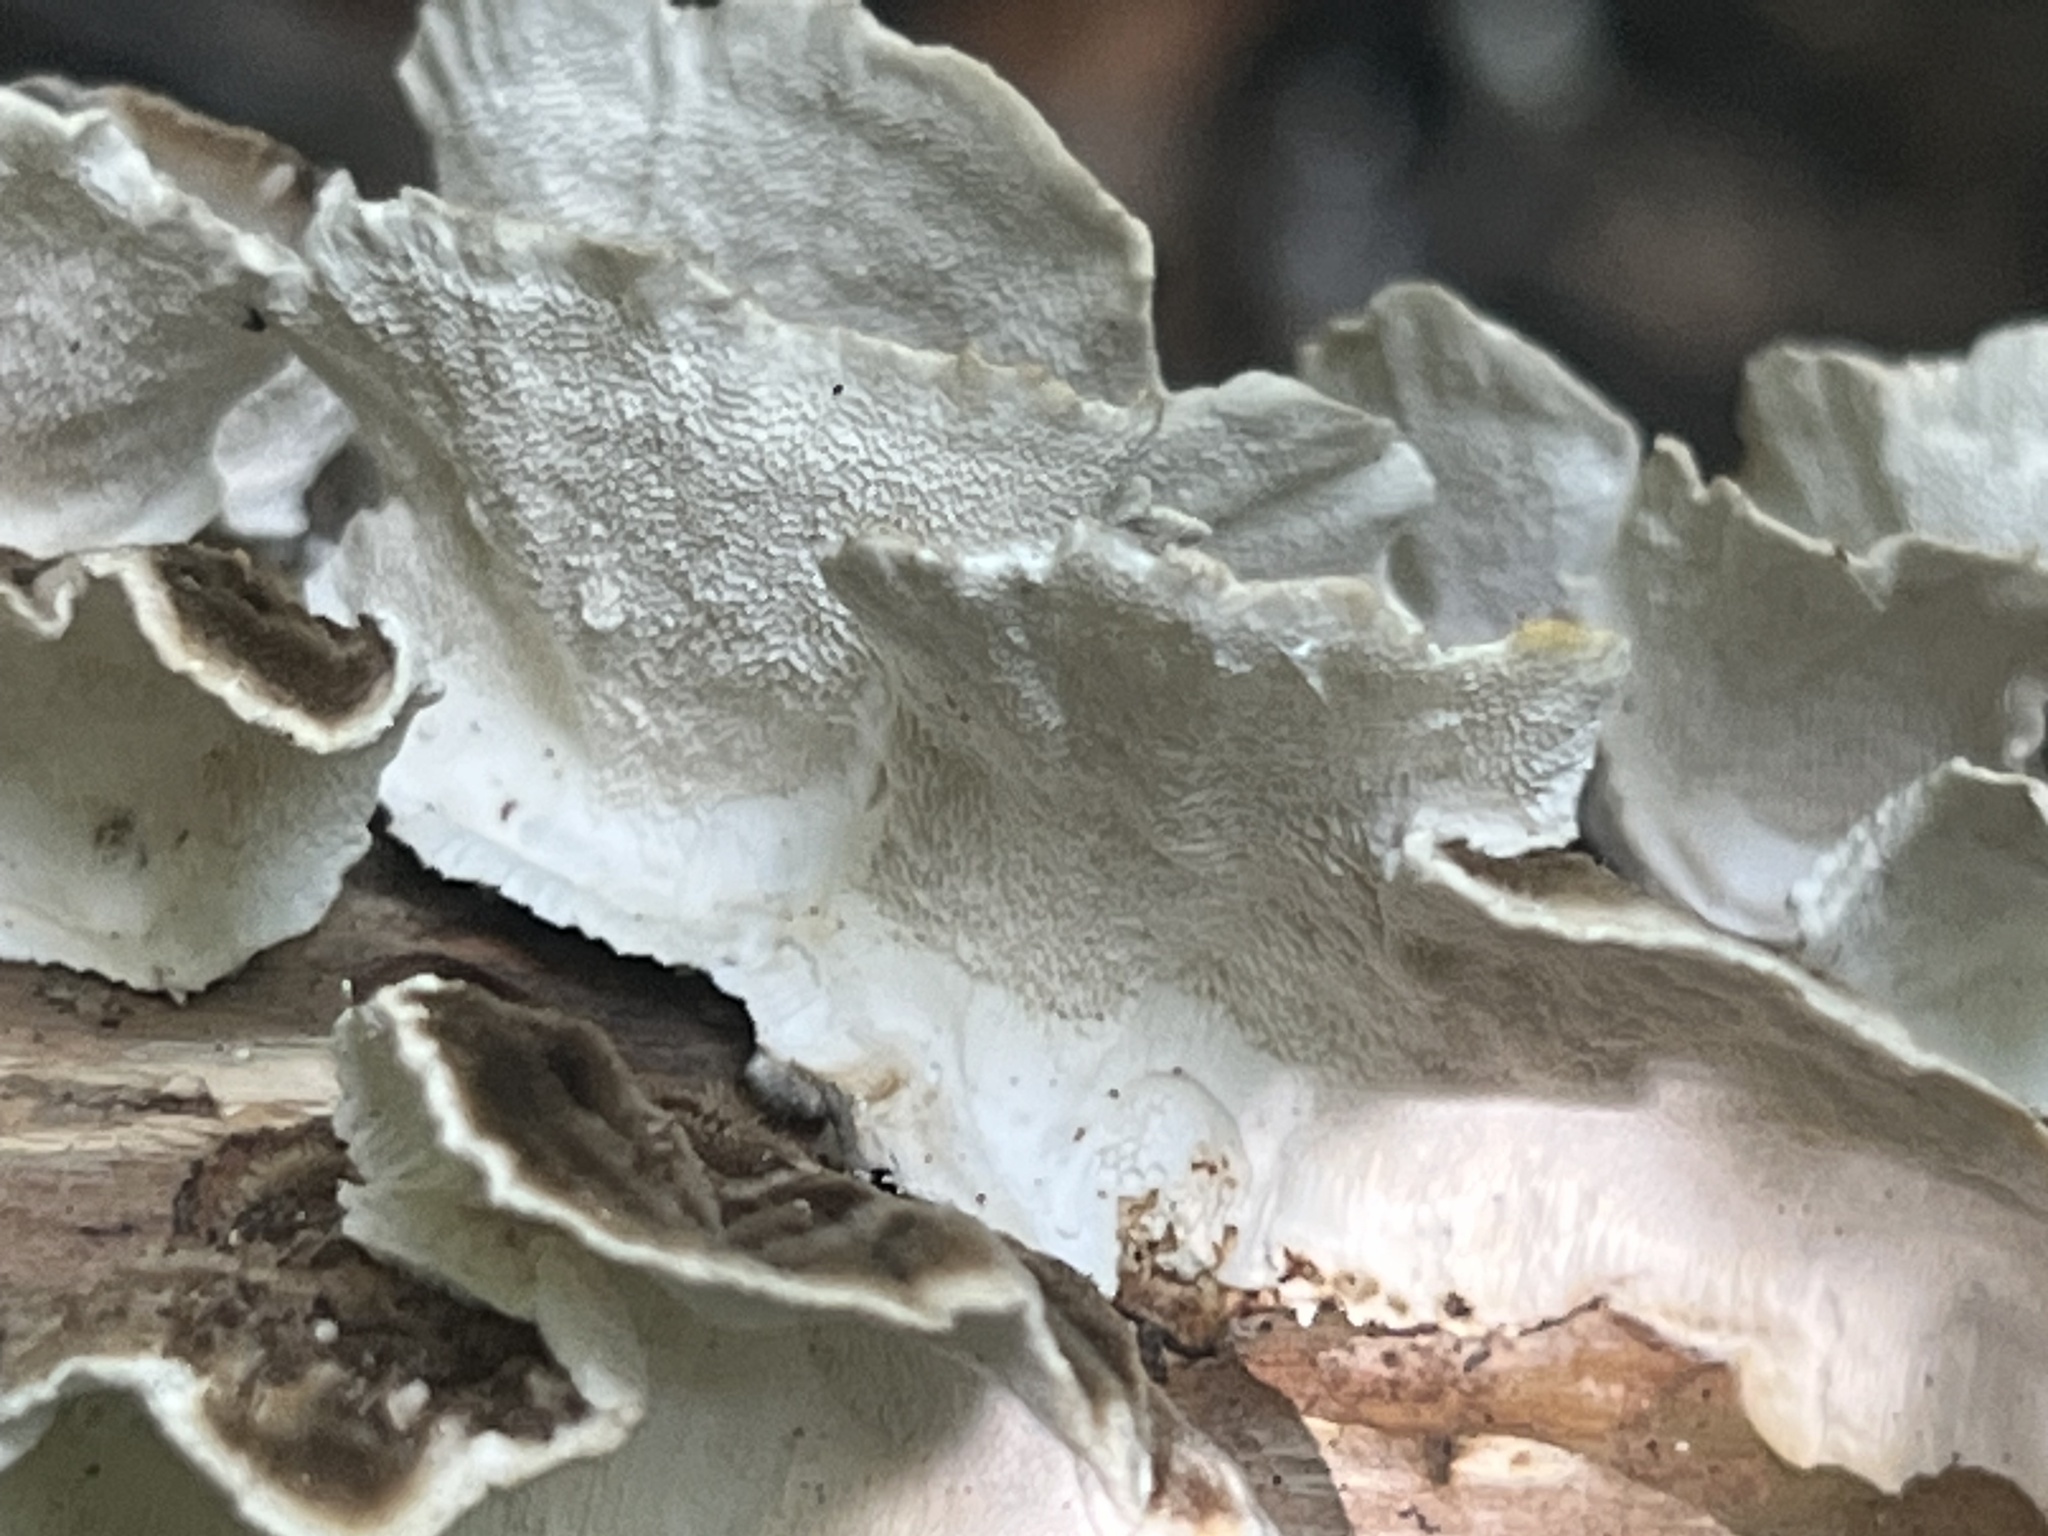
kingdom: Fungi
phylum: Basidiomycota
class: Agaricomycetes
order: Polyporales
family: Polyporaceae
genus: Trametes
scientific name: Trametes versicolor
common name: Turkeytail
